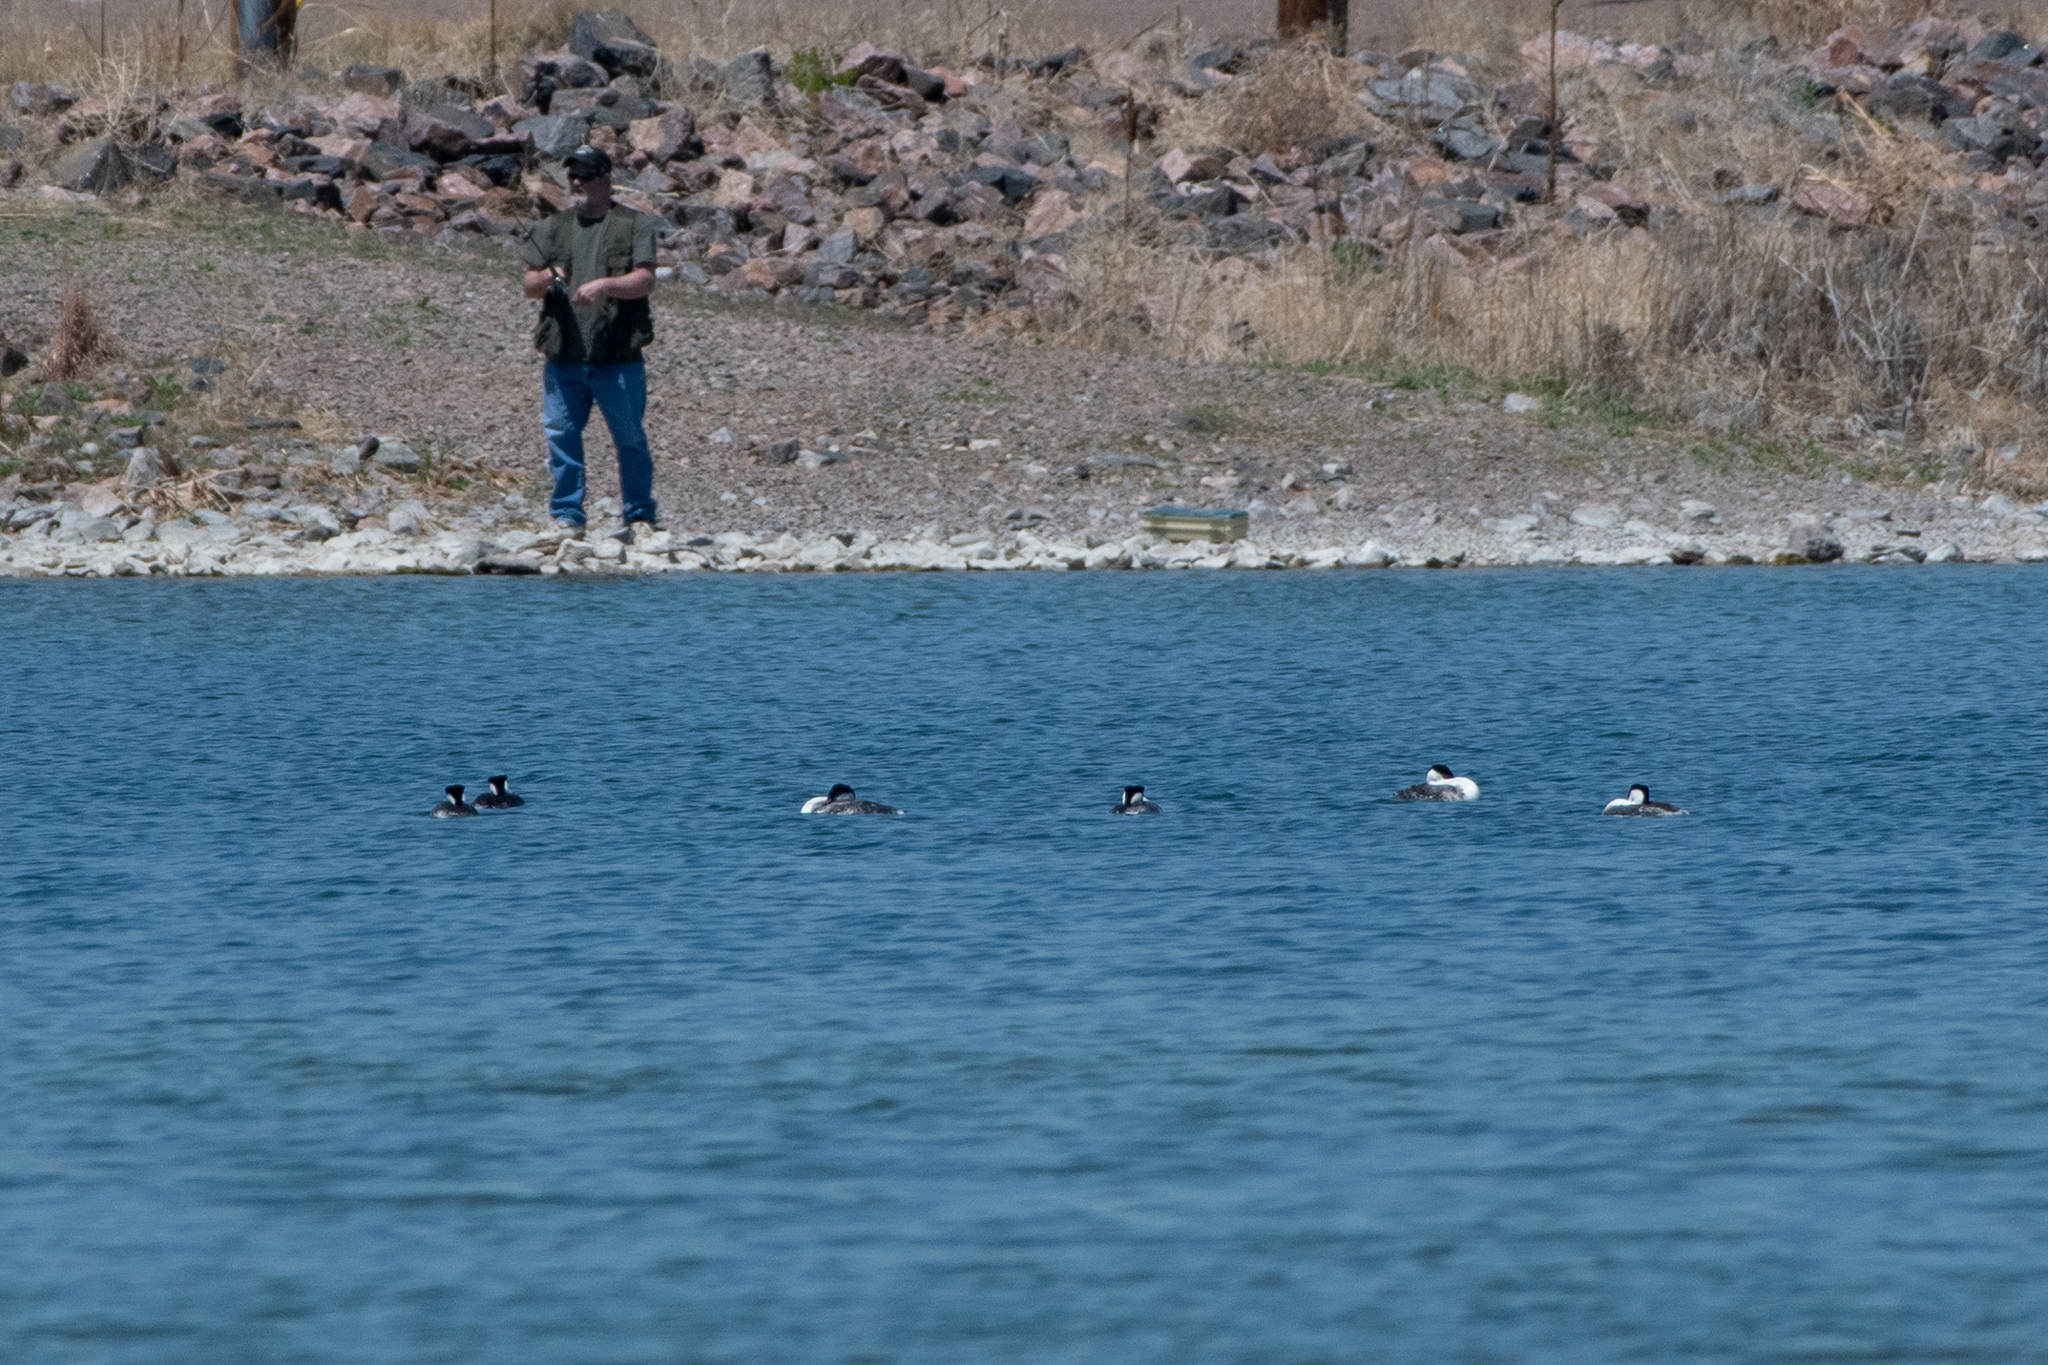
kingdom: Animalia
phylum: Chordata
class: Aves
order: Podicipediformes
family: Podicipedidae
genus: Aechmophorus
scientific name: Aechmophorus occidentalis
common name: Western grebe
